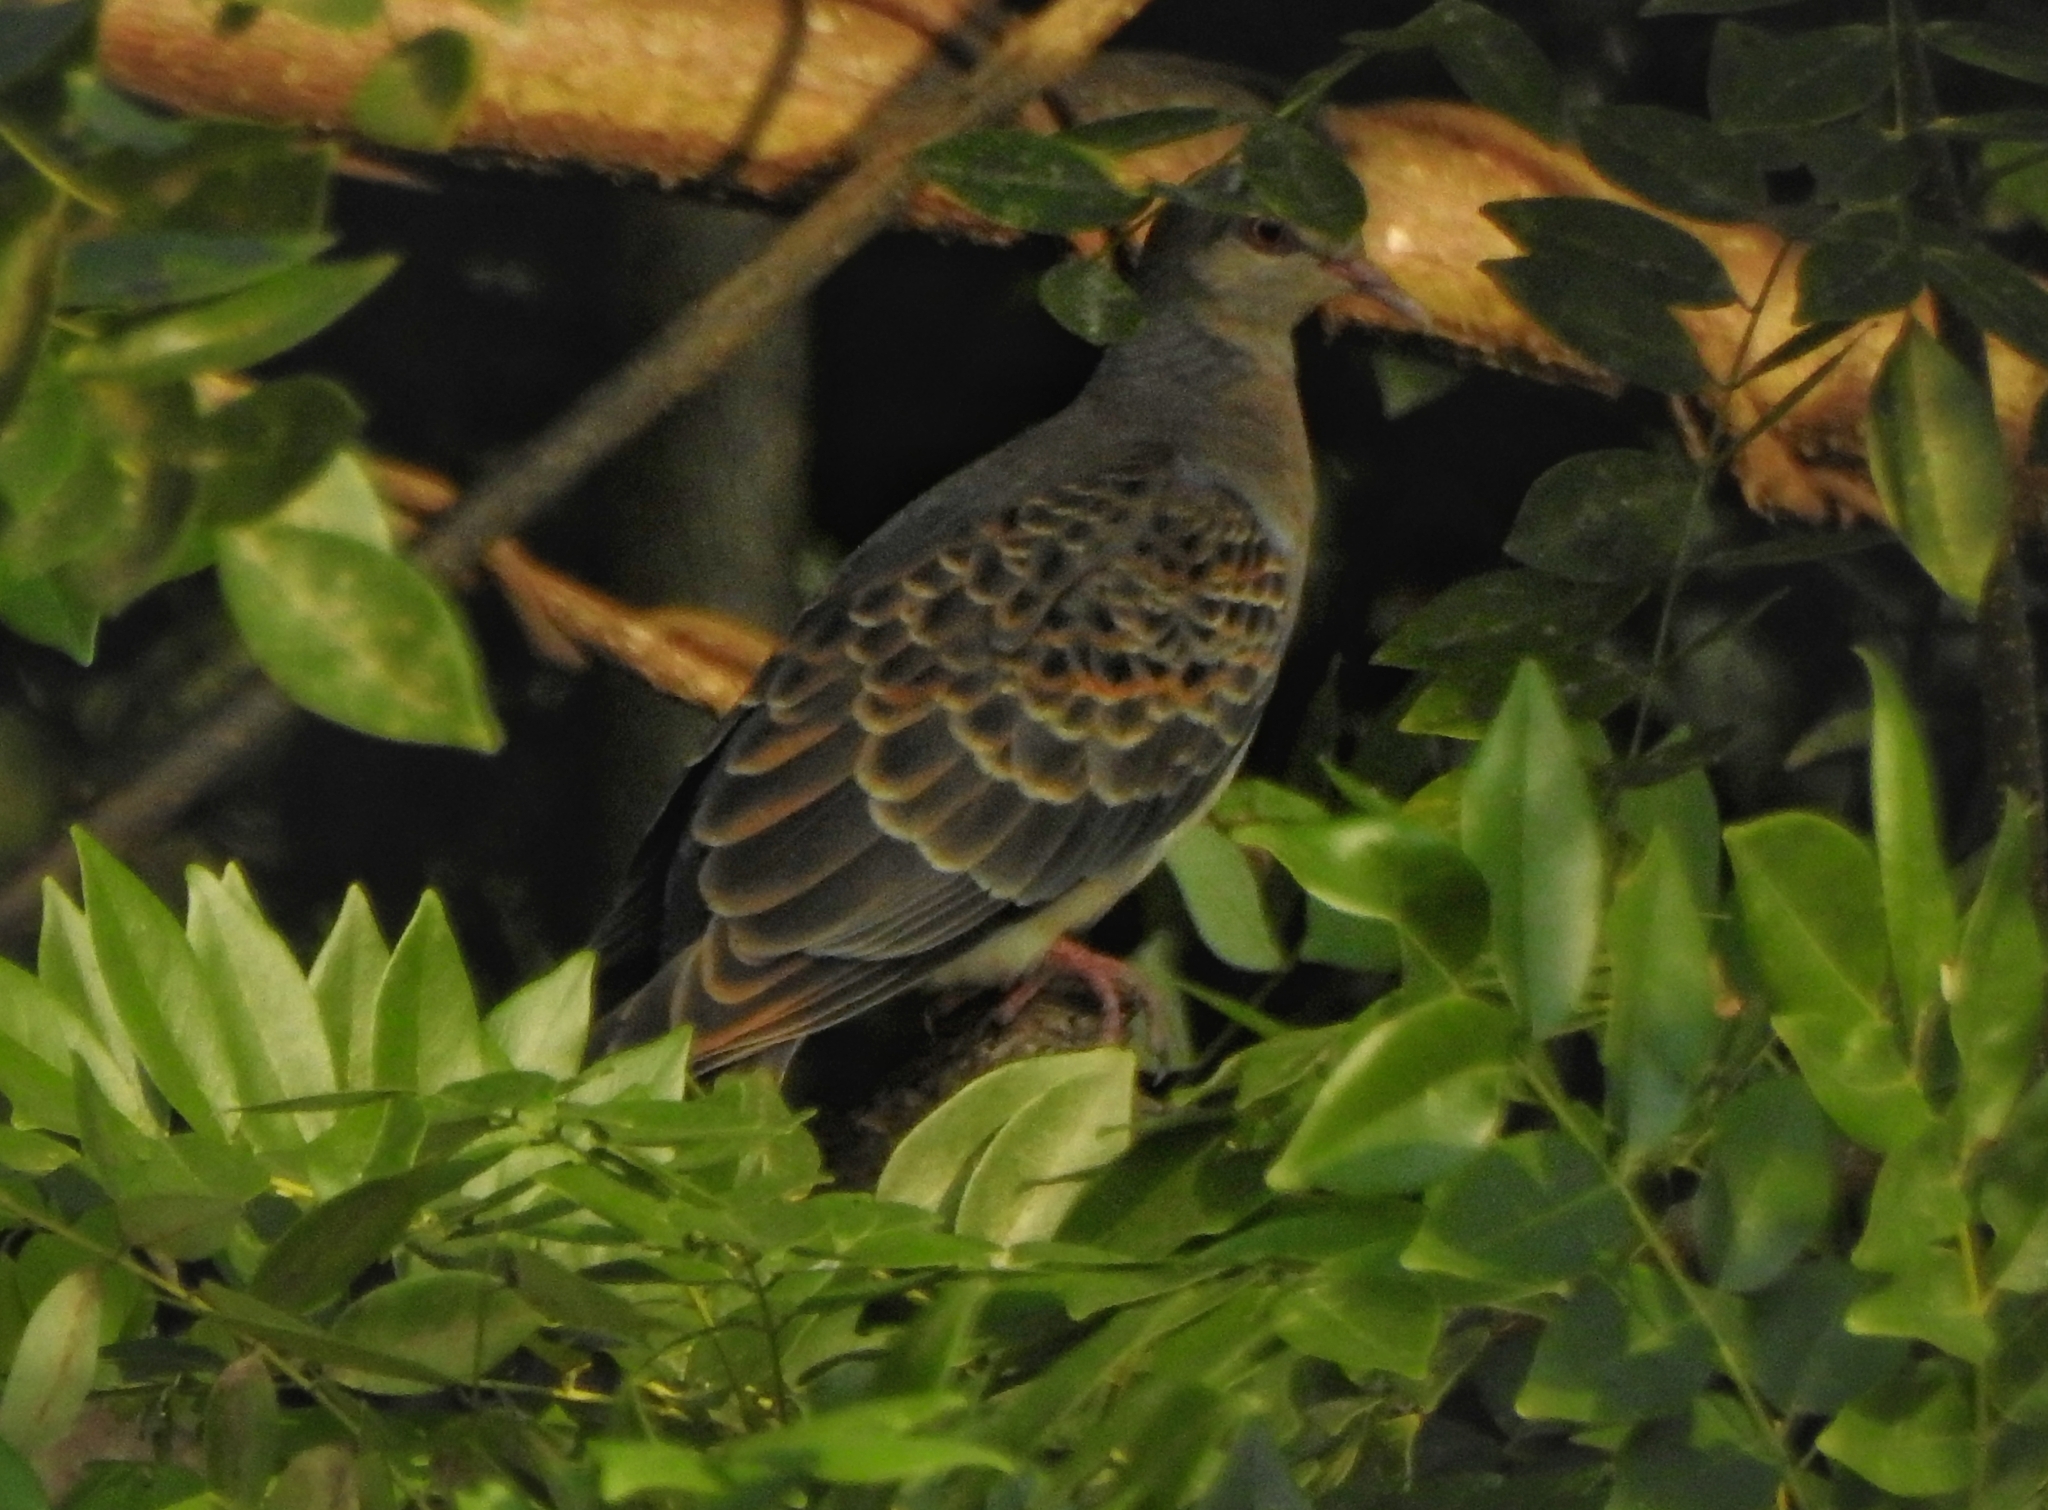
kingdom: Animalia
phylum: Chordata
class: Aves
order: Columbiformes
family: Columbidae
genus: Streptopelia
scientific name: Streptopelia orientalis
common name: Oriental turtle dove
